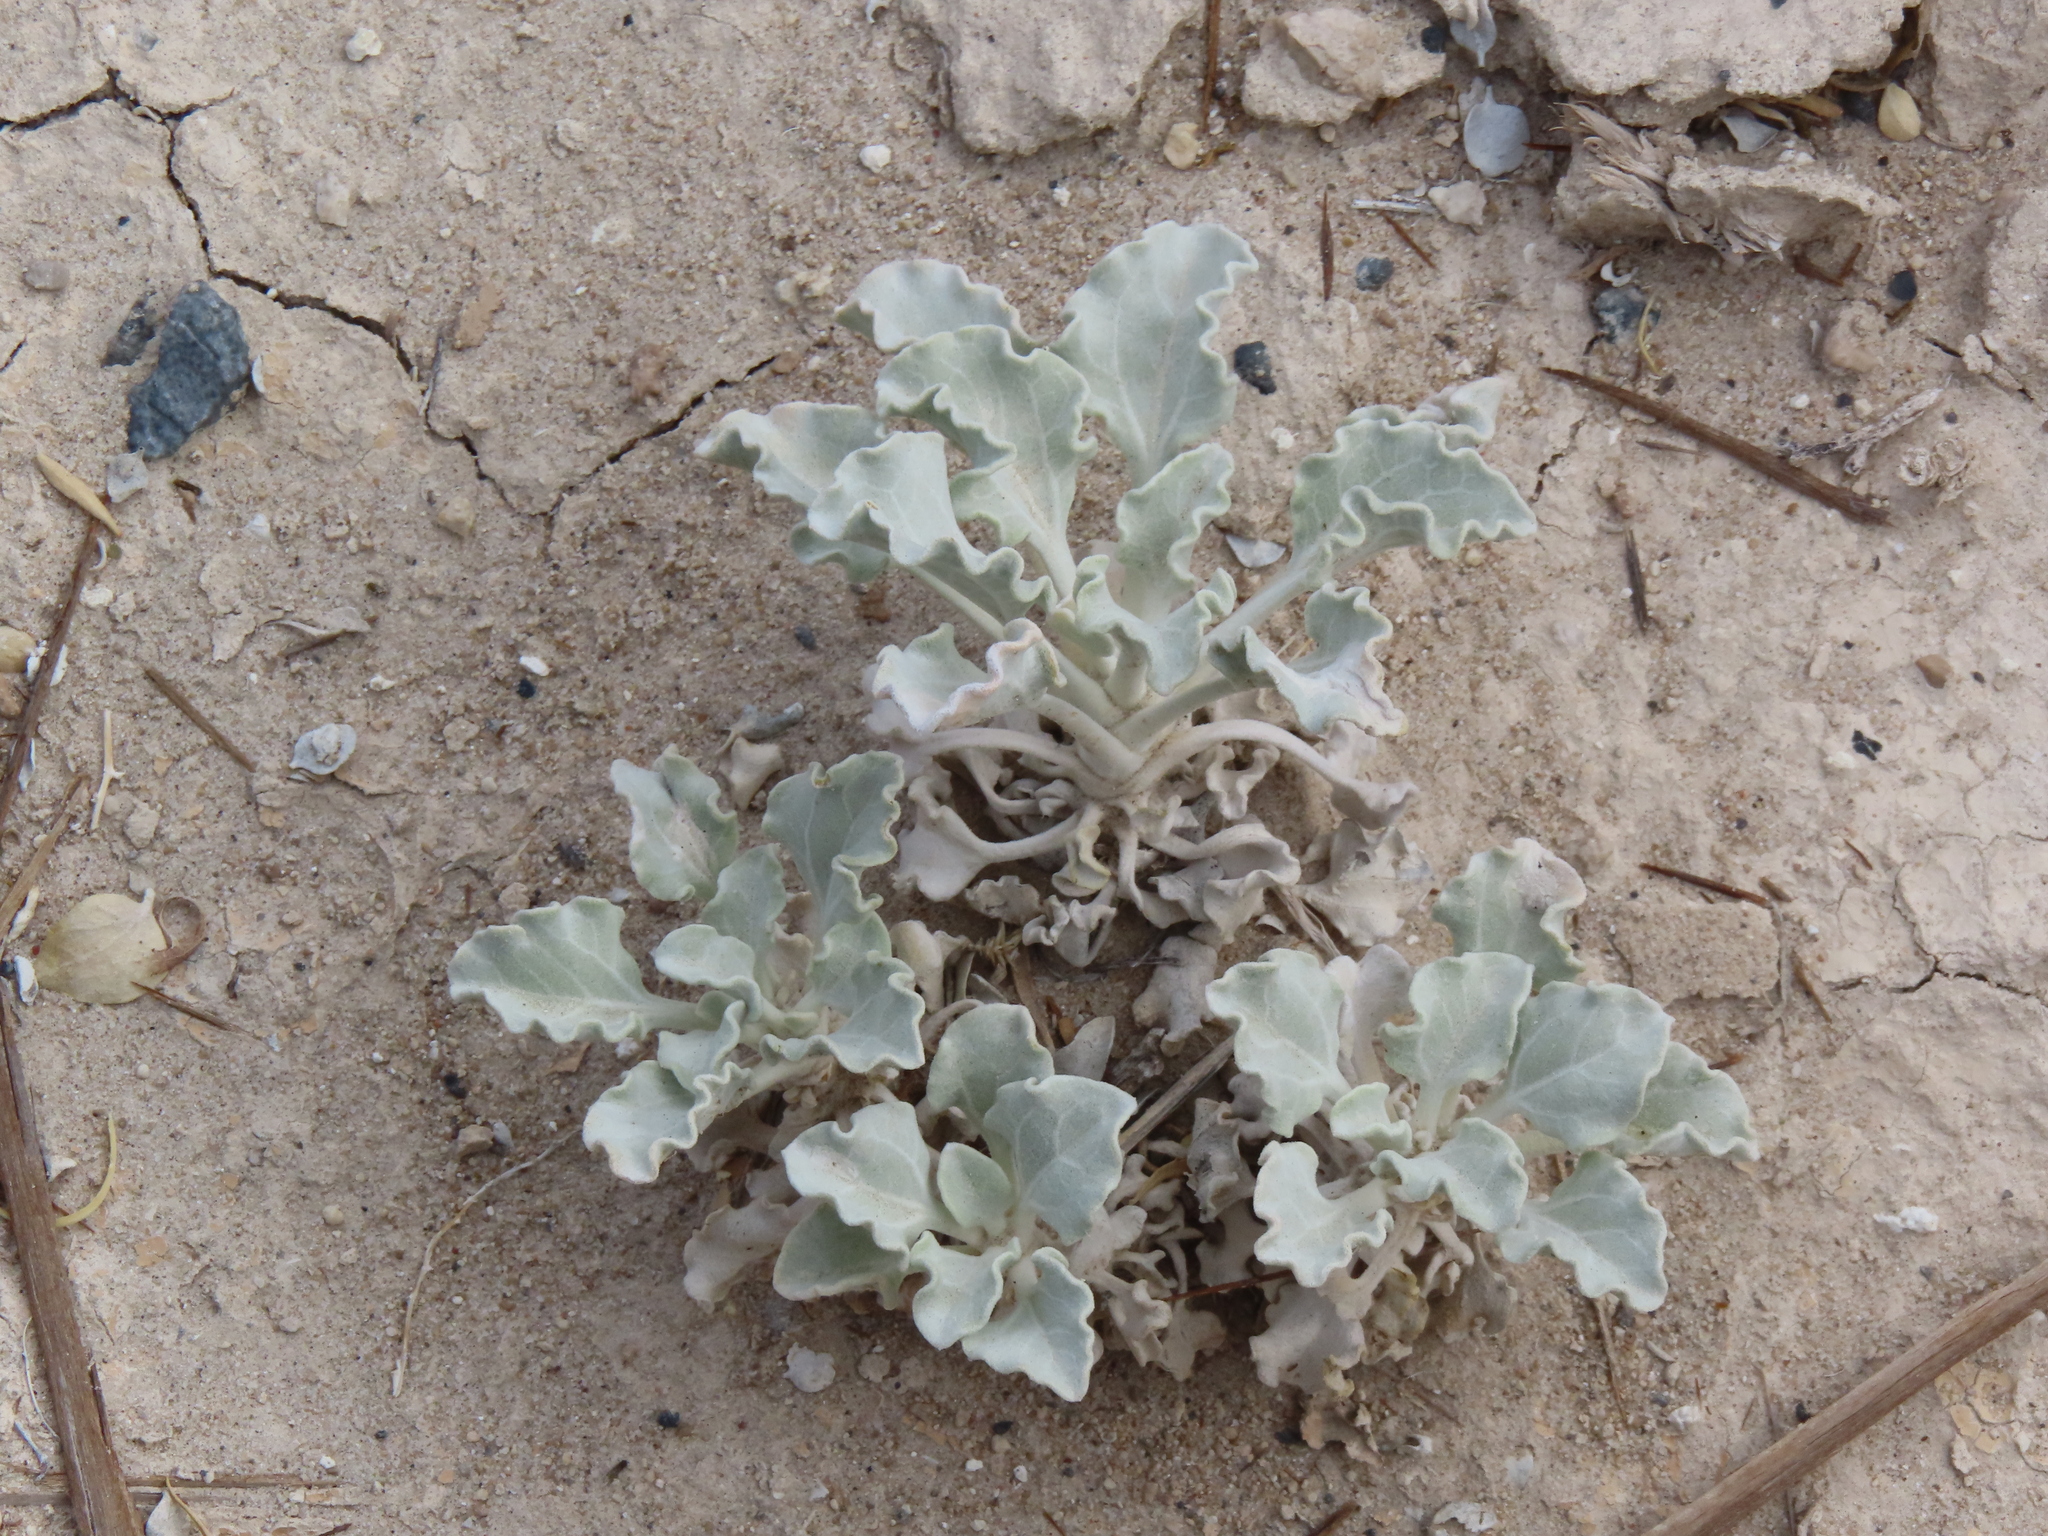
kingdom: Plantae
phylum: Tracheophyta
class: Magnoliopsida
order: Asterales
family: Asteraceae
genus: Enceliopsis
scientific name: Enceliopsis nudicaulis
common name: Naked-stem daisy
